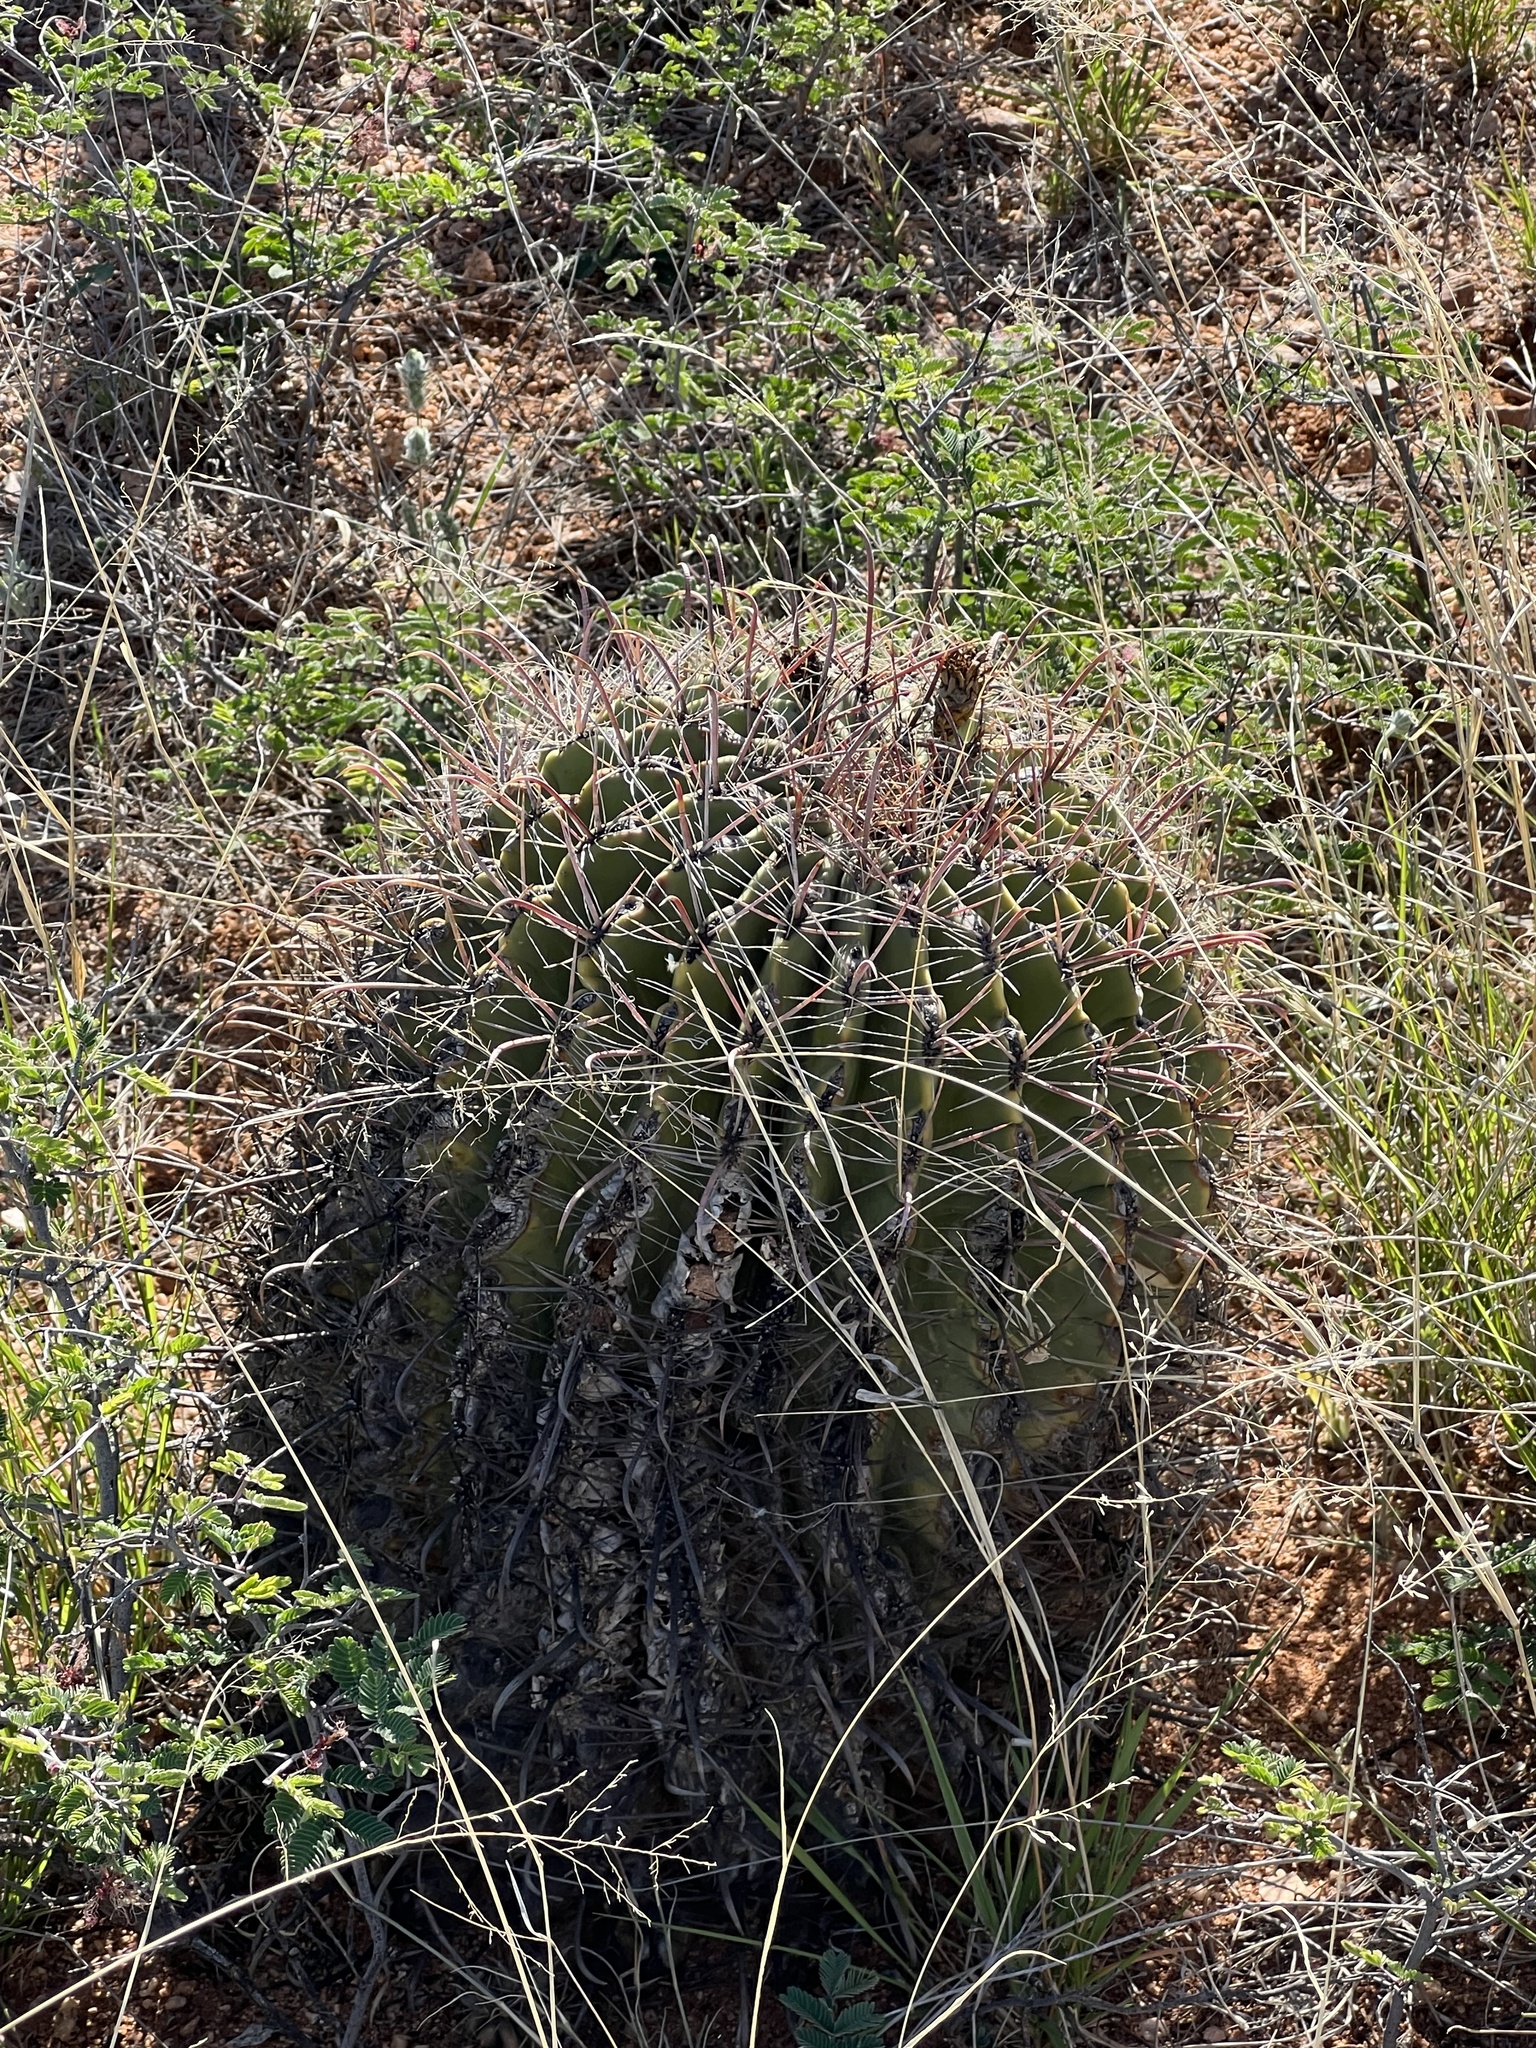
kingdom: Plantae
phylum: Tracheophyta
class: Magnoliopsida
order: Caryophyllales
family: Cactaceae
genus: Ferocactus
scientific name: Ferocactus wislizeni
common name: Candy barrel cactus
